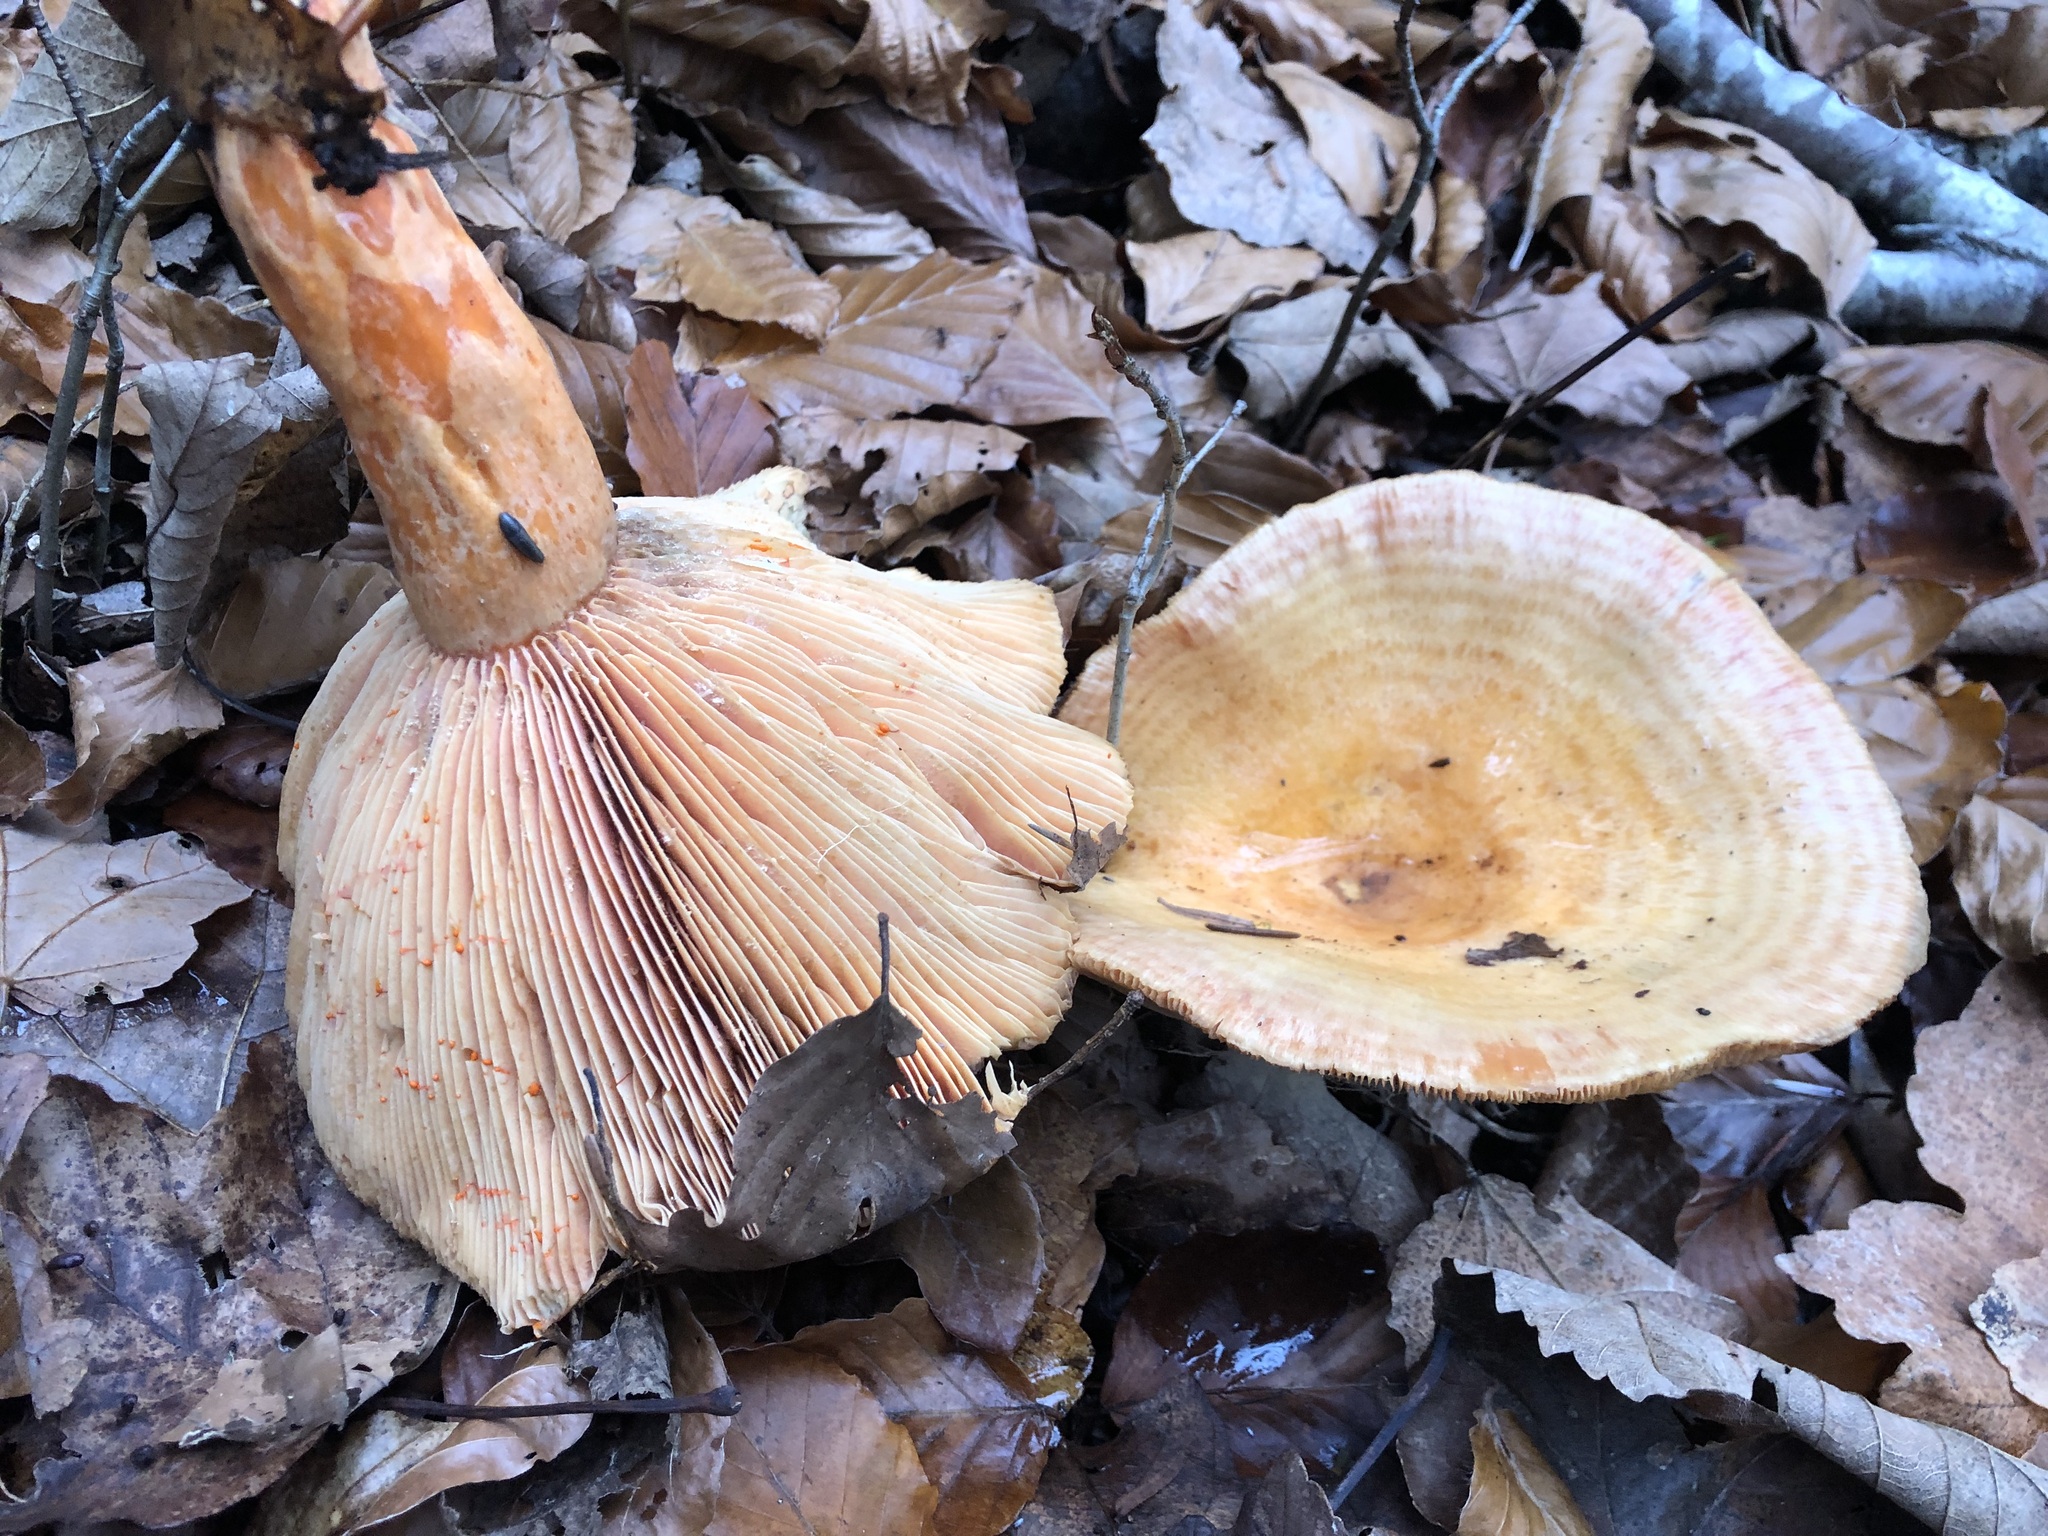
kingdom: Fungi
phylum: Basidiomycota
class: Agaricomycetes
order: Russulales
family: Russulaceae
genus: Lactarius
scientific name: Lactarius salmonicolor
